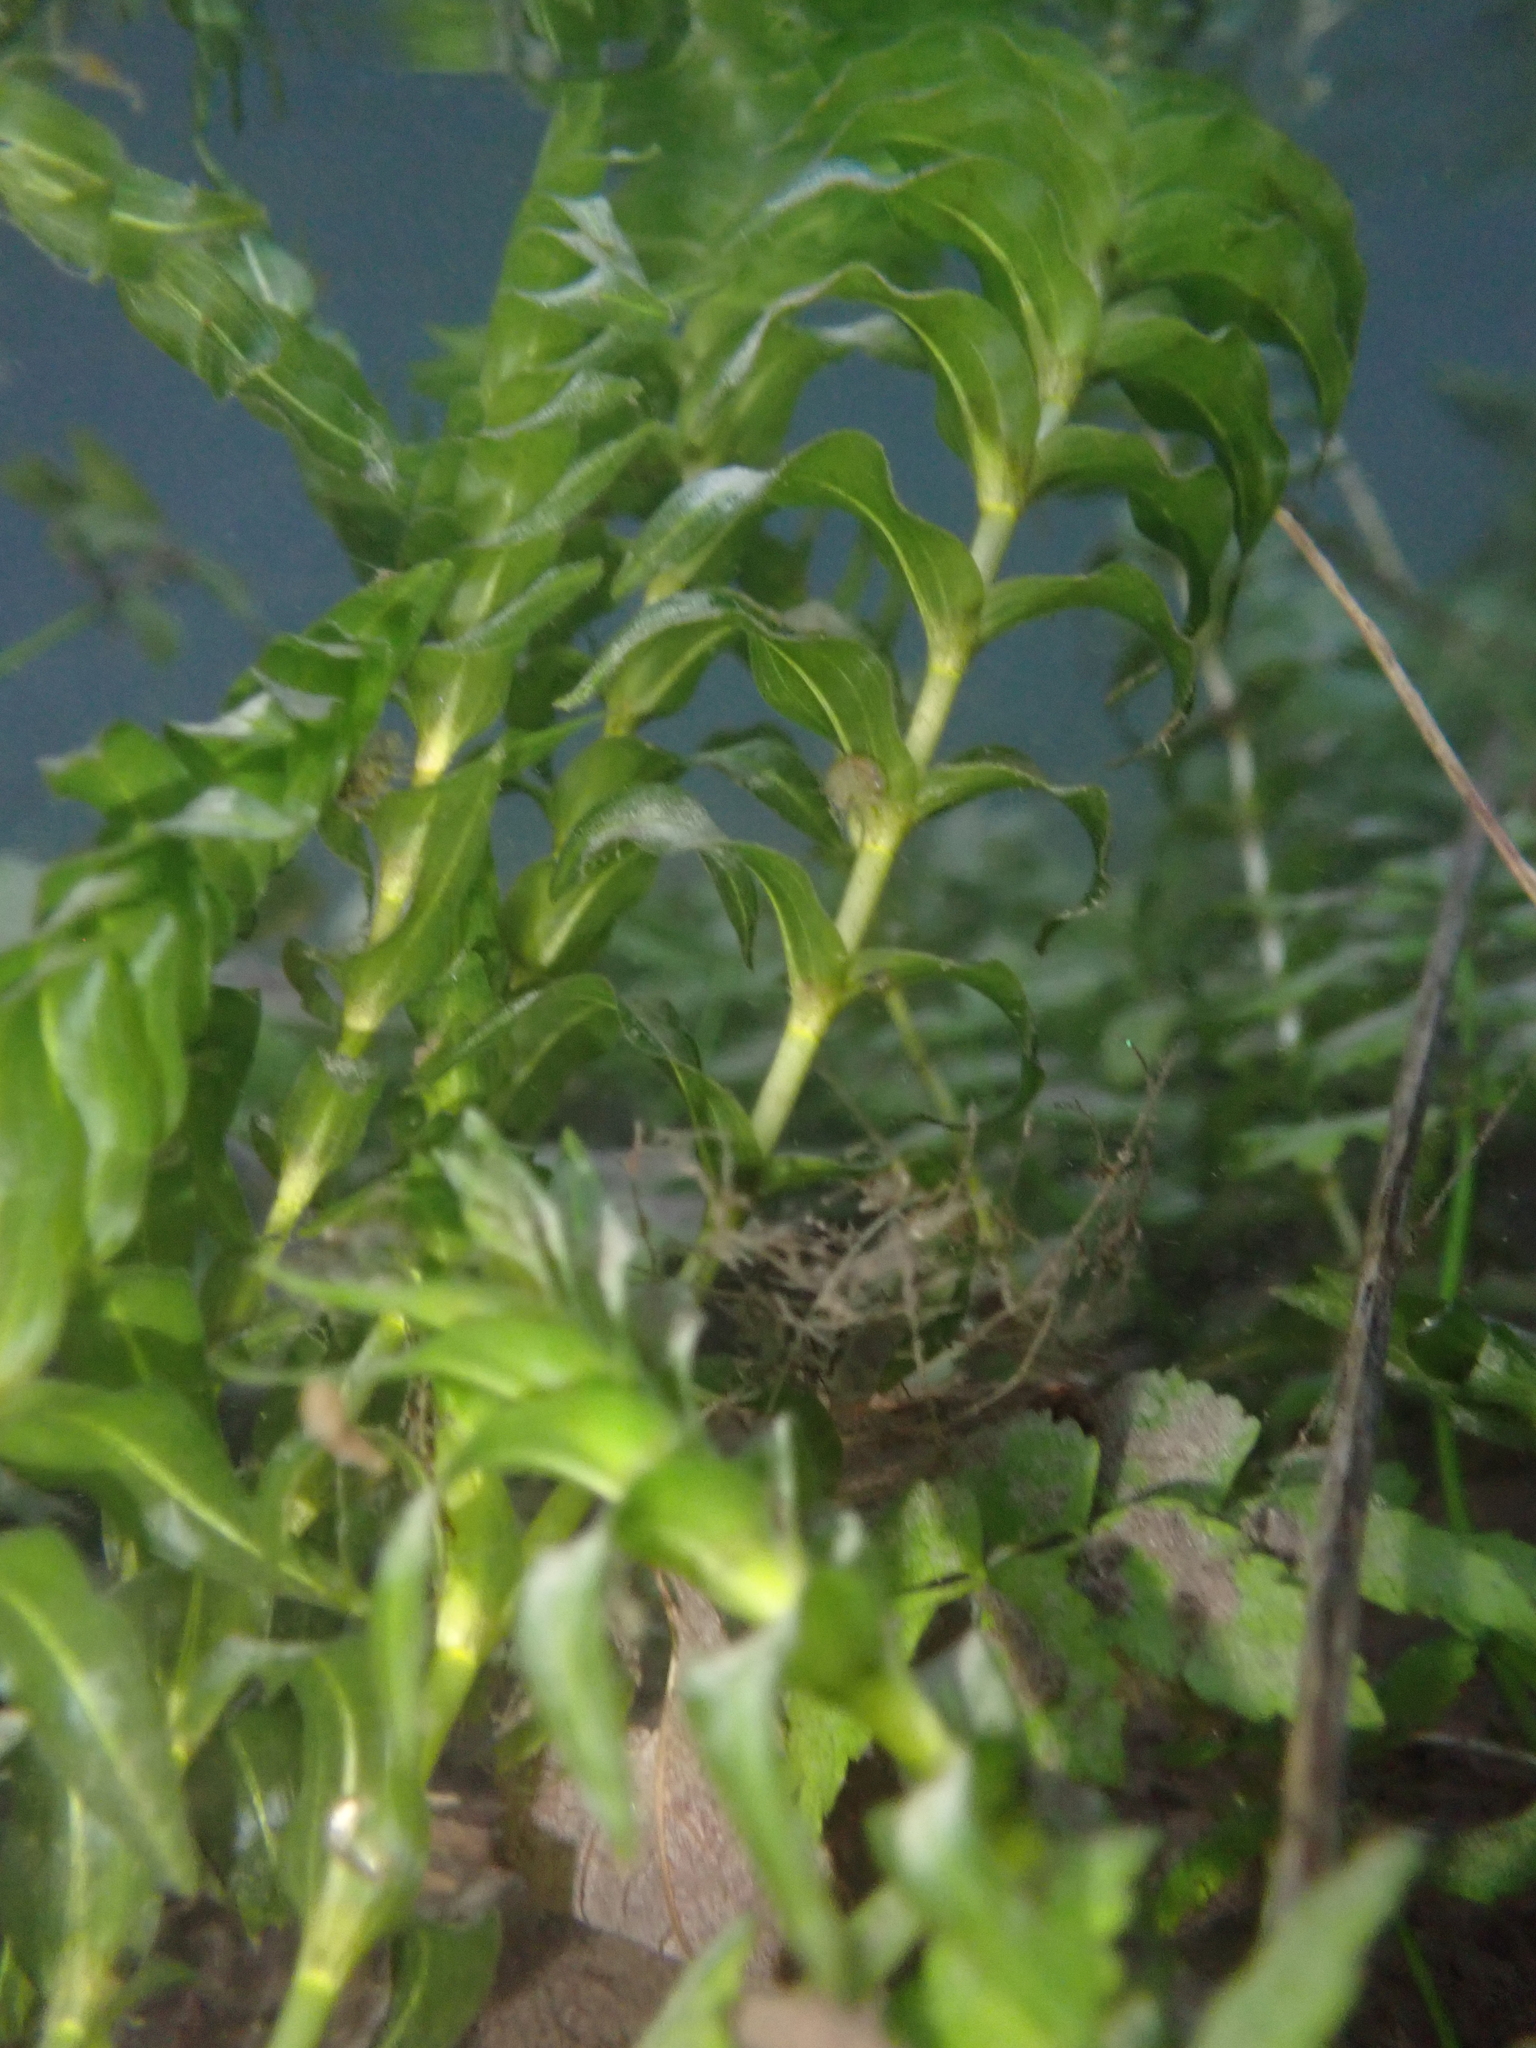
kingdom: Plantae
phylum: Tracheophyta
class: Liliopsida
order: Alismatales
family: Potamogetonaceae
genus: Groenlandia
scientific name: Groenlandia densa
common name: Opposite-leaved pondweed
